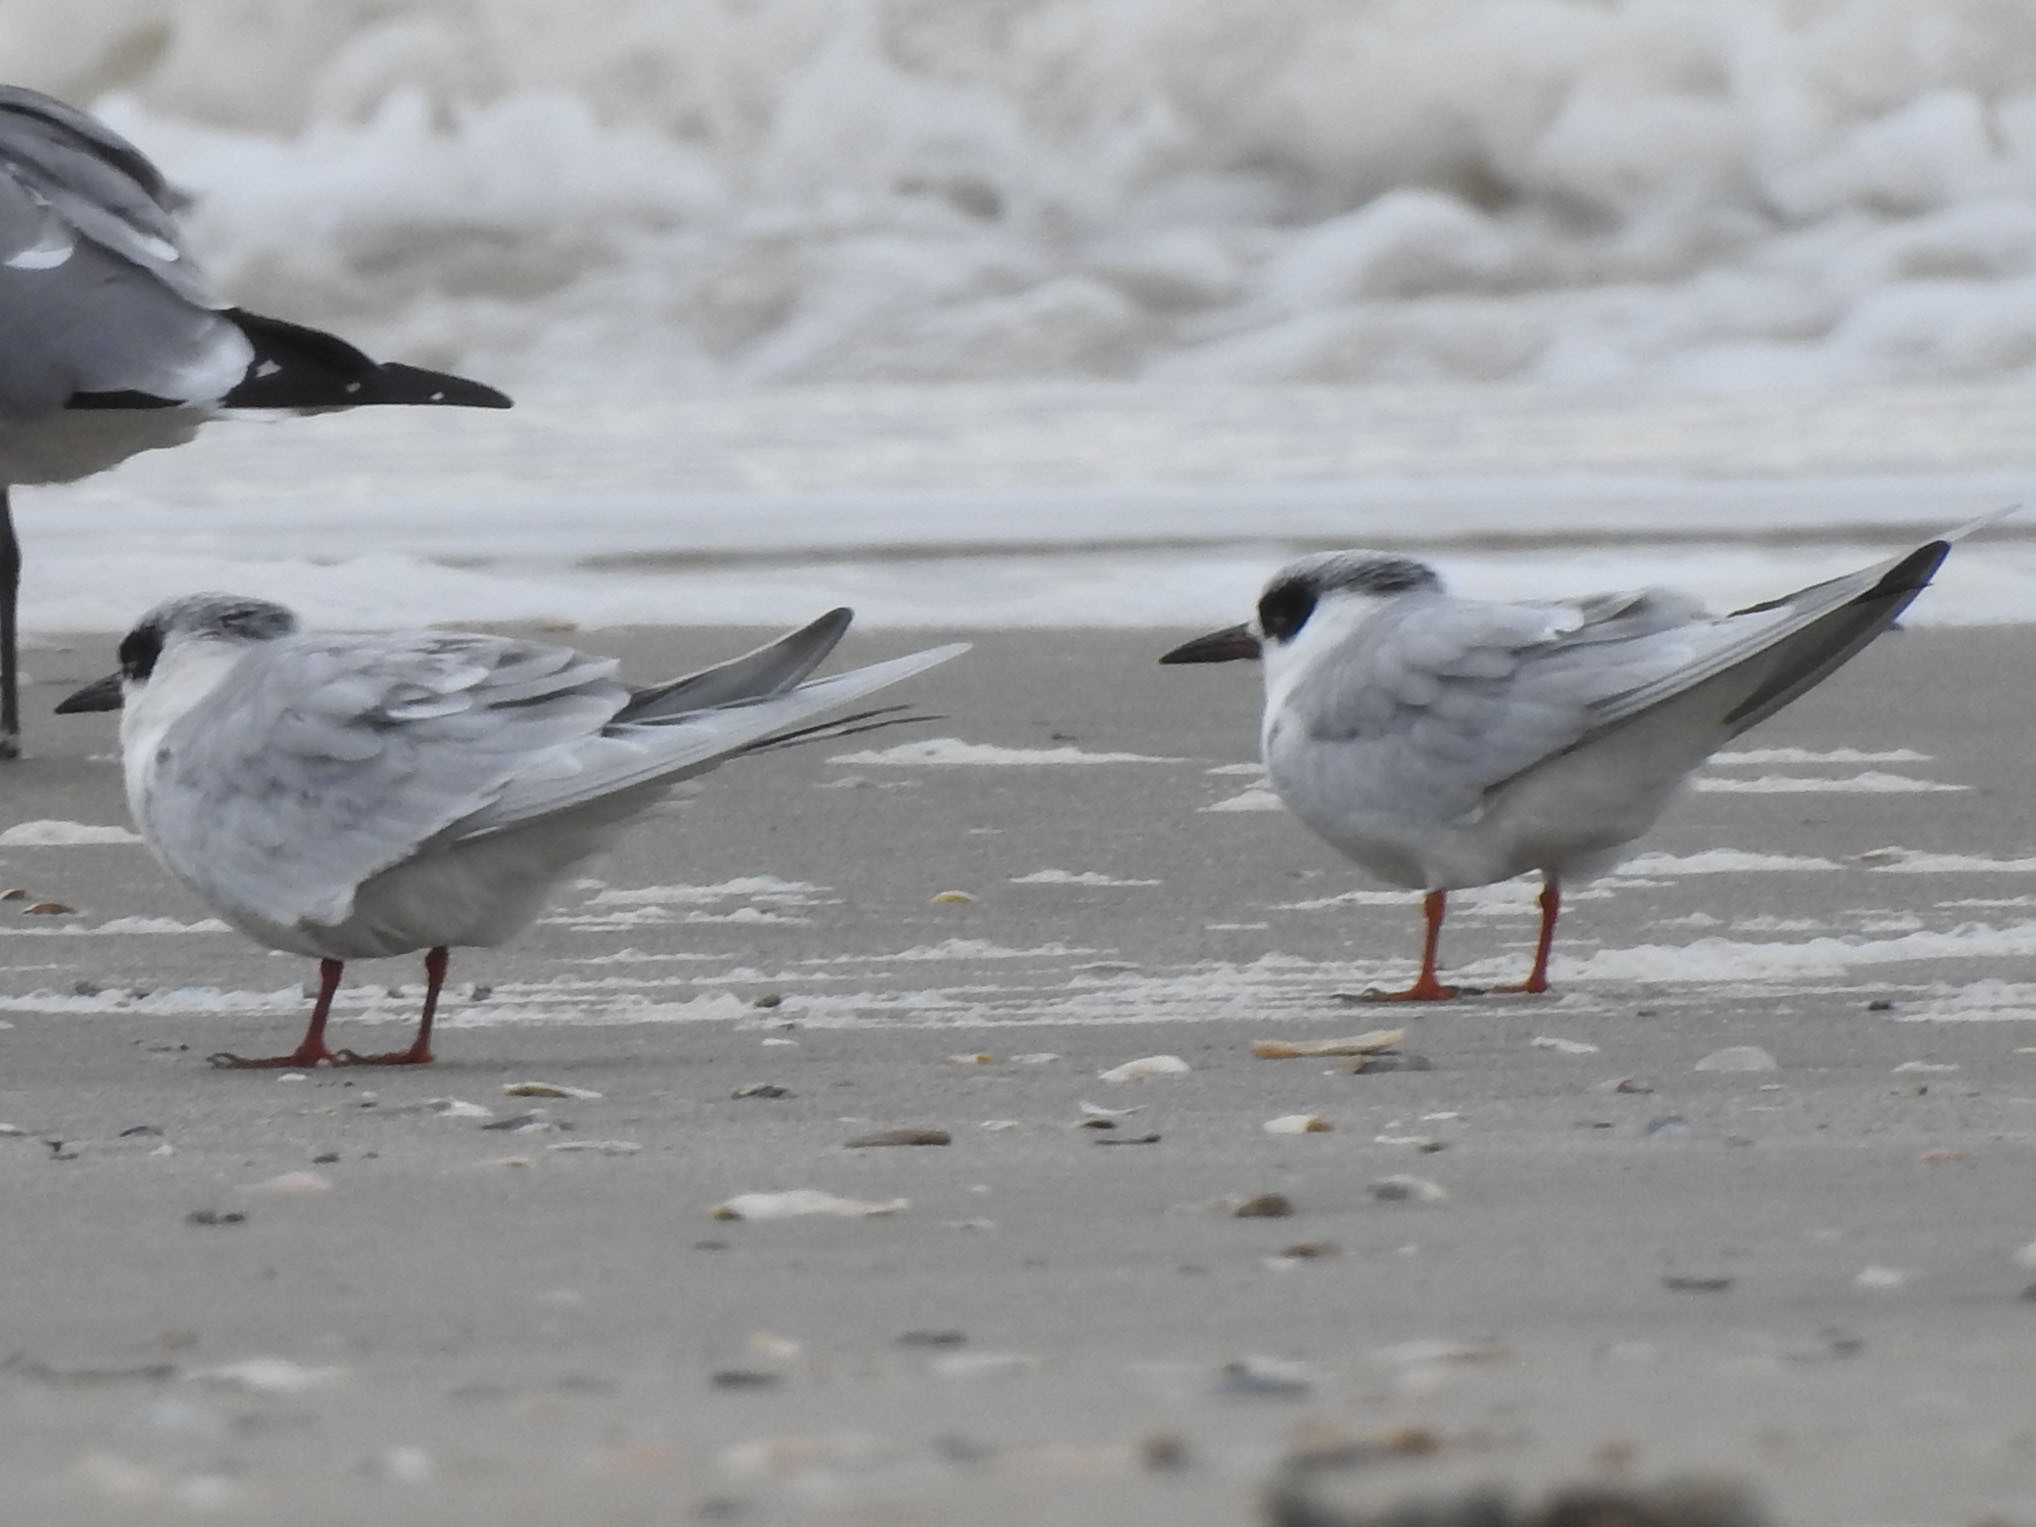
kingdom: Animalia
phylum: Chordata
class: Aves
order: Charadriiformes
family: Laridae
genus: Sterna
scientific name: Sterna forsteri
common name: Forster's tern
